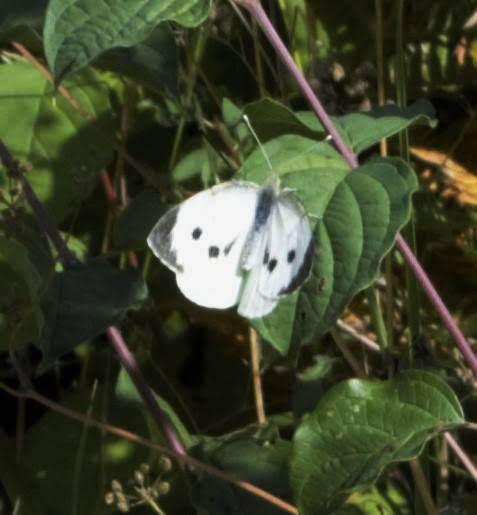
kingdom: Animalia
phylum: Arthropoda
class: Insecta
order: Lepidoptera
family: Pieridae
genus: Pieris
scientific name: Pieris brassicae
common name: Large white
